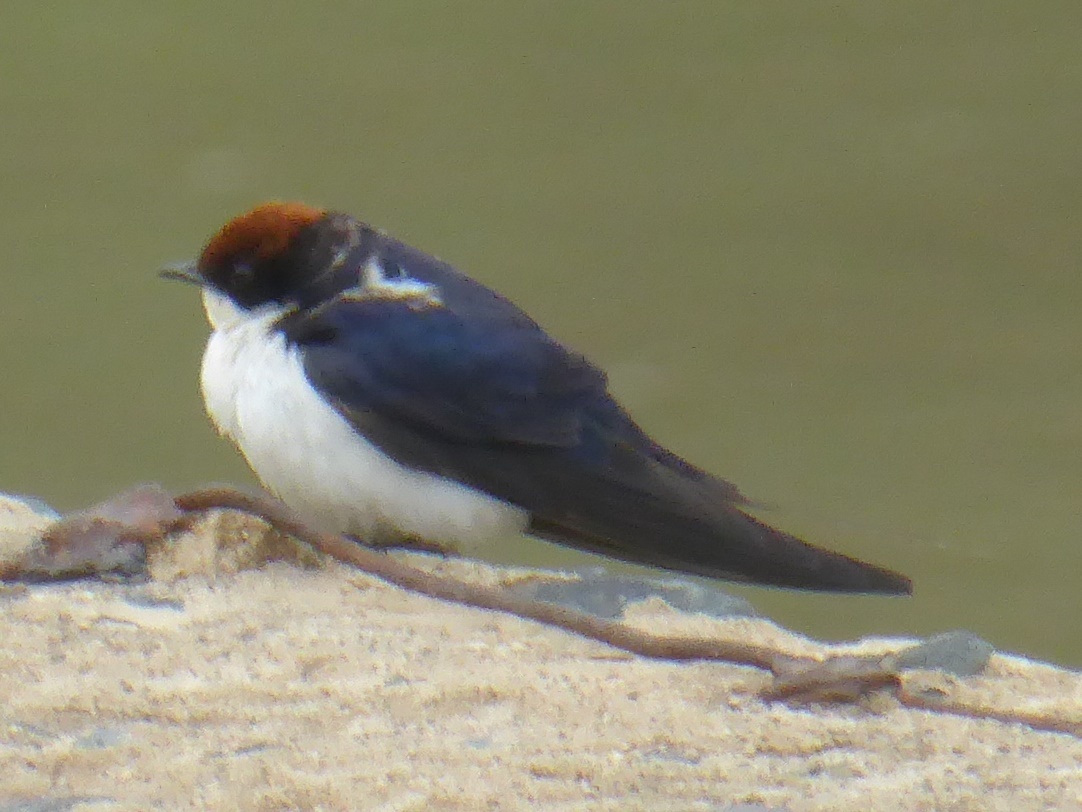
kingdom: Animalia
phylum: Chordata
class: Aves
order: Passeriformes
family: Hirundinidae
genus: Hirundo
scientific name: Hirundo smithii
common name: Wire-tailed swallow
